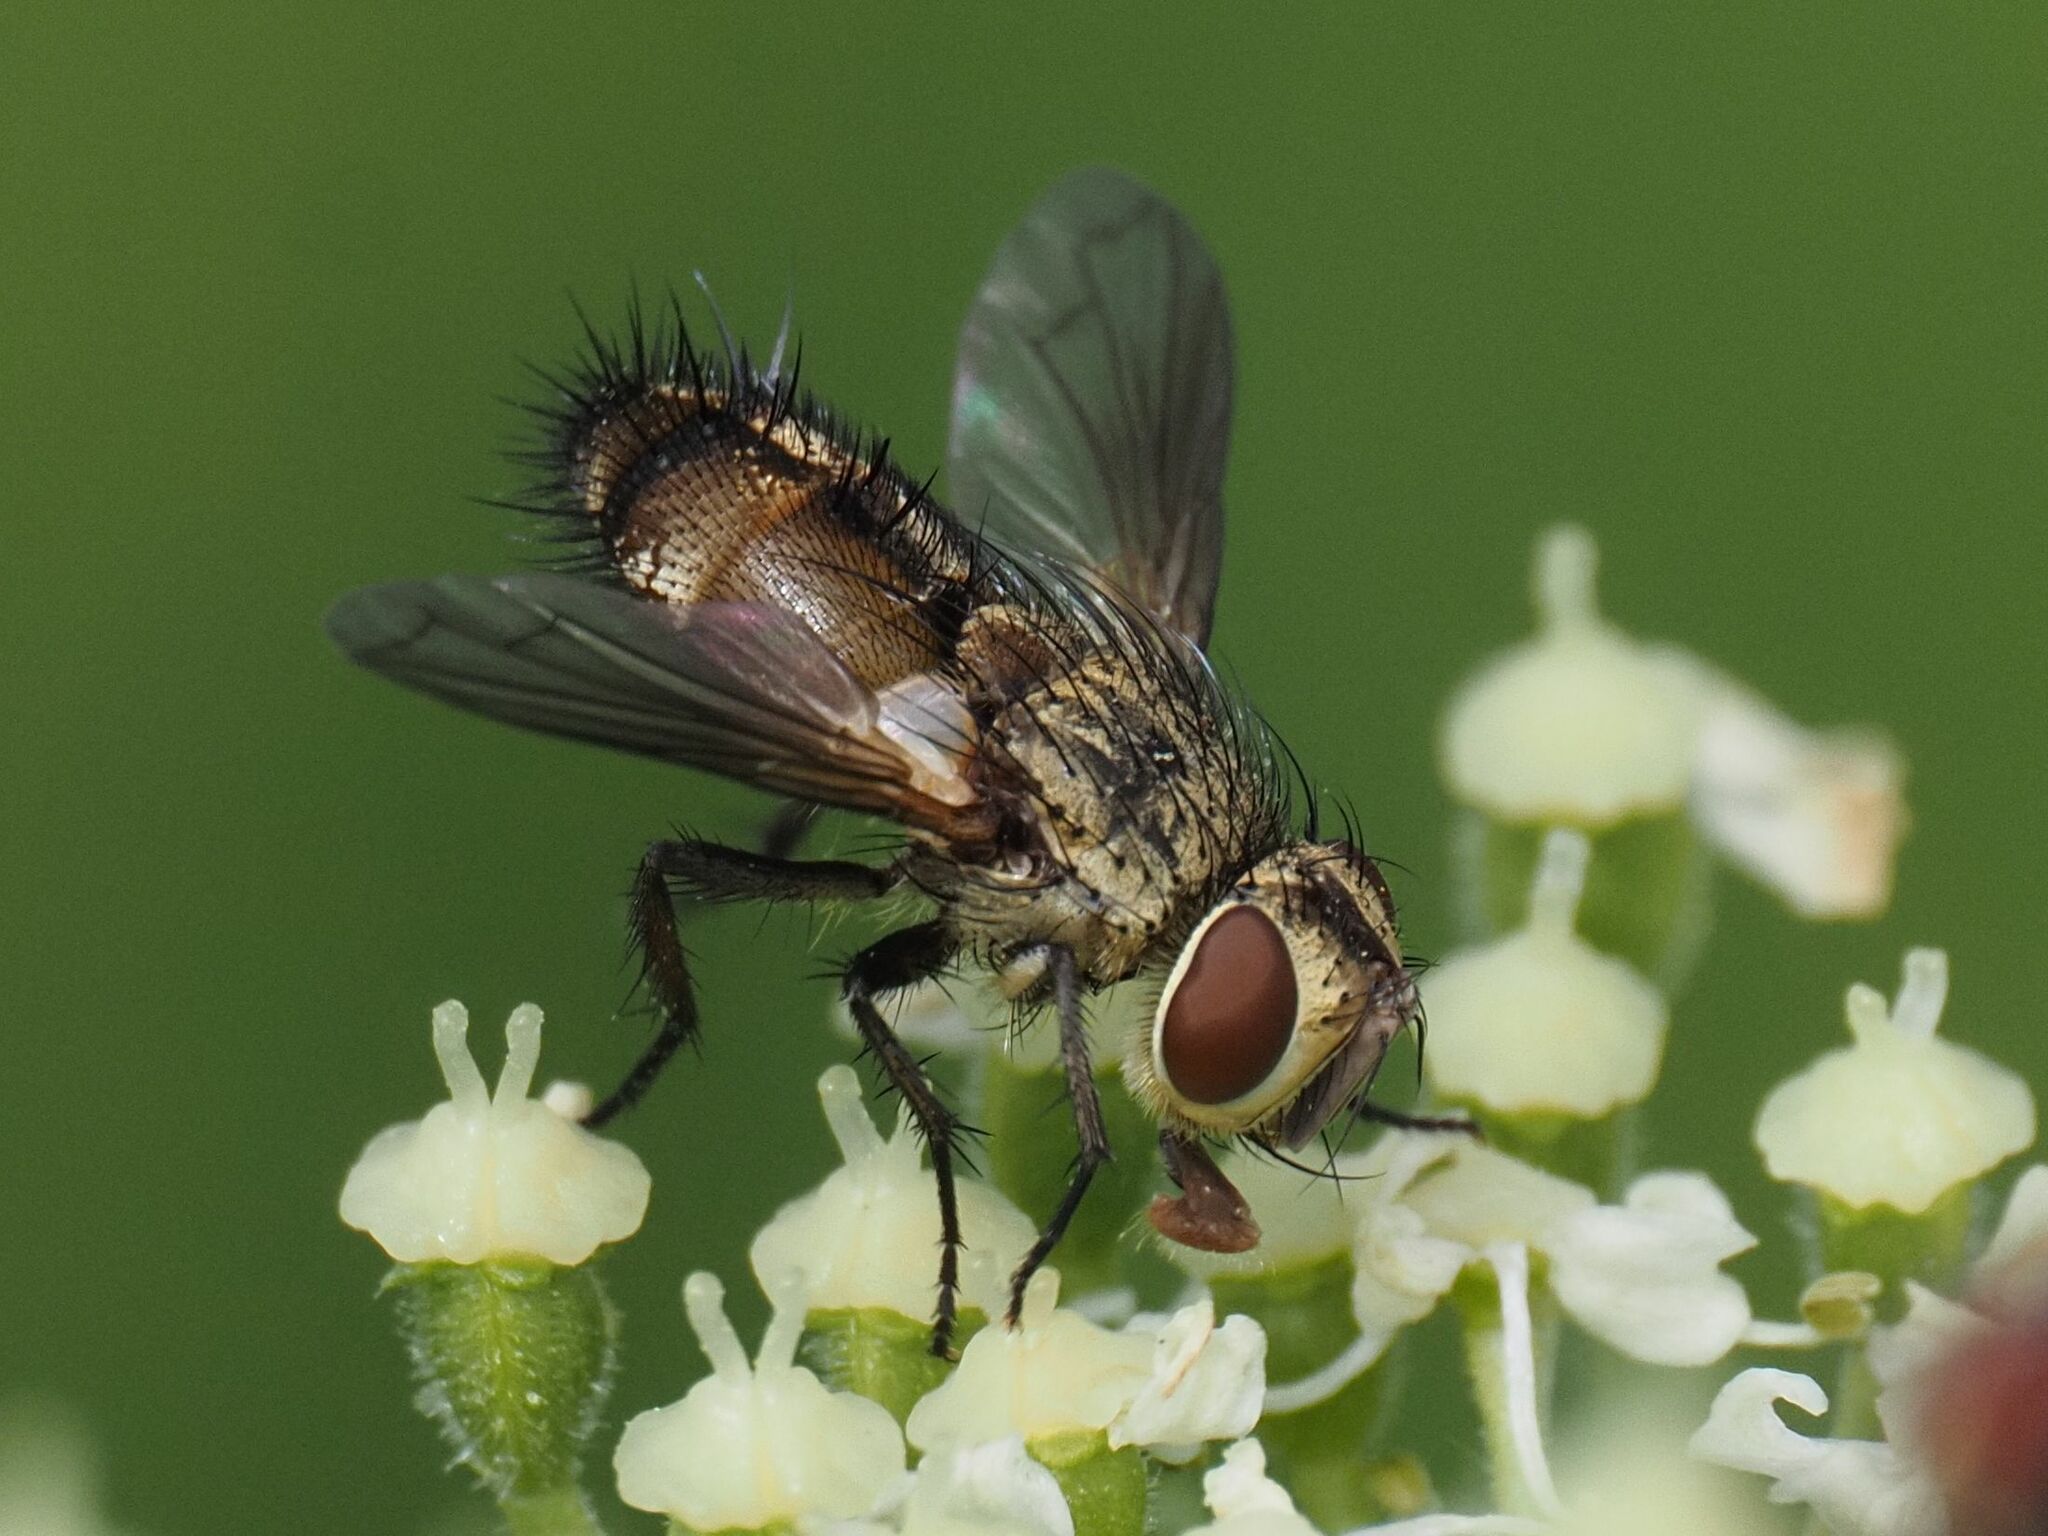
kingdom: Animalia
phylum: Arthropoda
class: Insecta
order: Diptera
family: Tachinidae
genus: Frontina
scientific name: Frontina laeta
